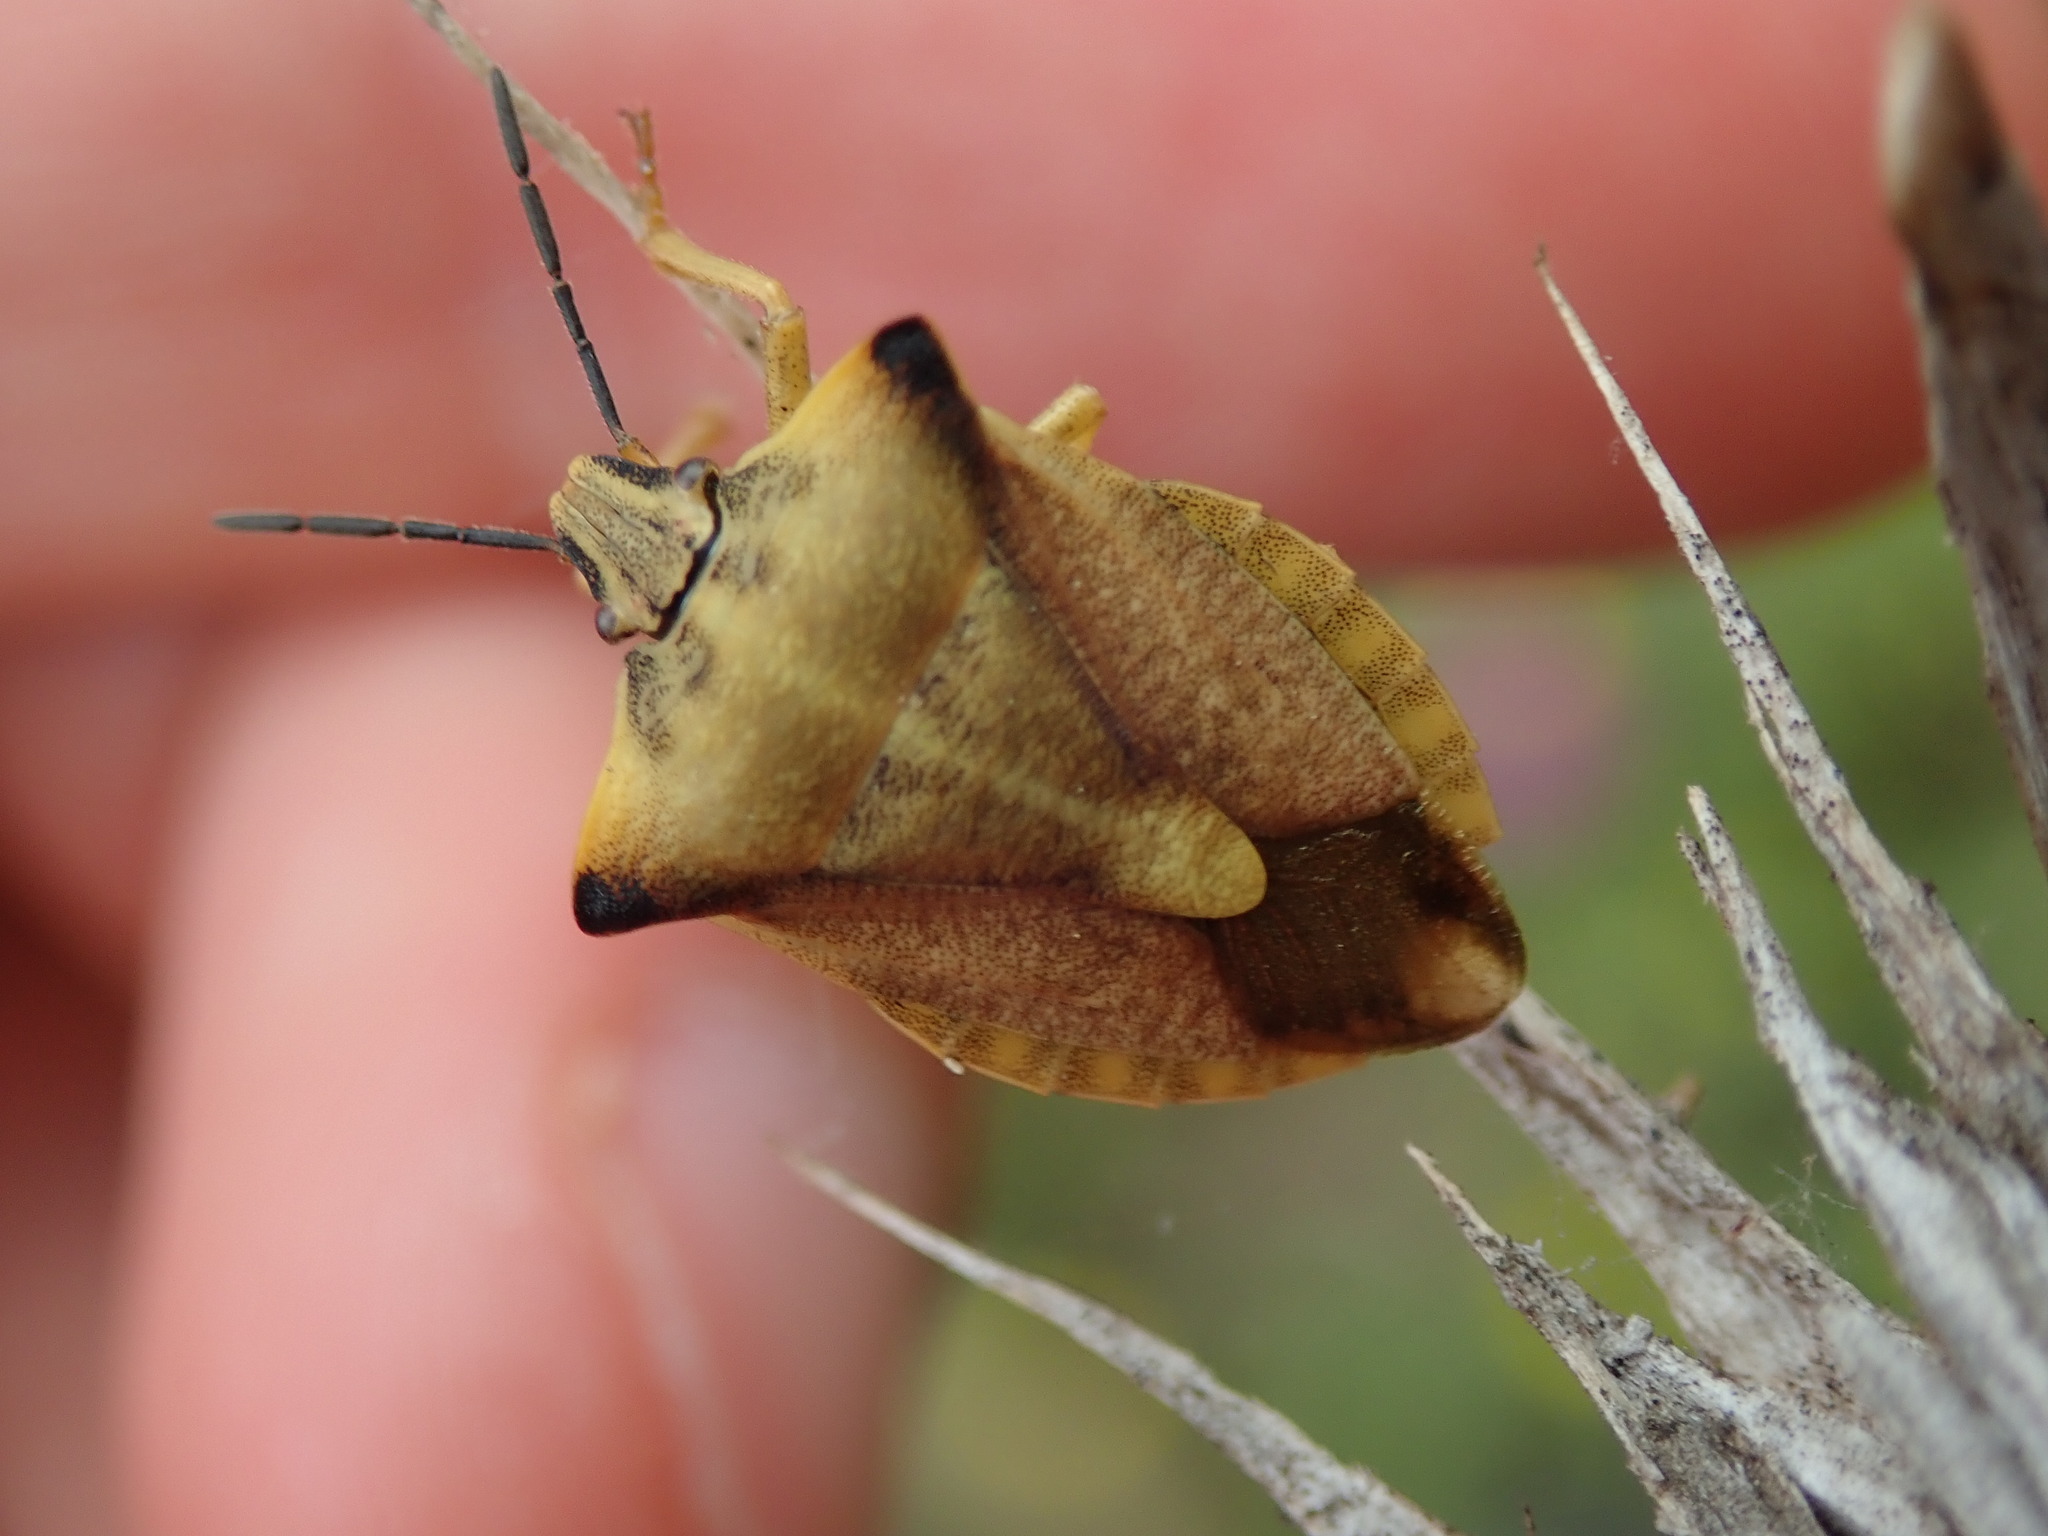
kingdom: Animalia
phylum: Arthropoda
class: Insecta
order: Hemiptera
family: Pentatomidae
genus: Carpocoris
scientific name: Carpocoris fuscispinus
